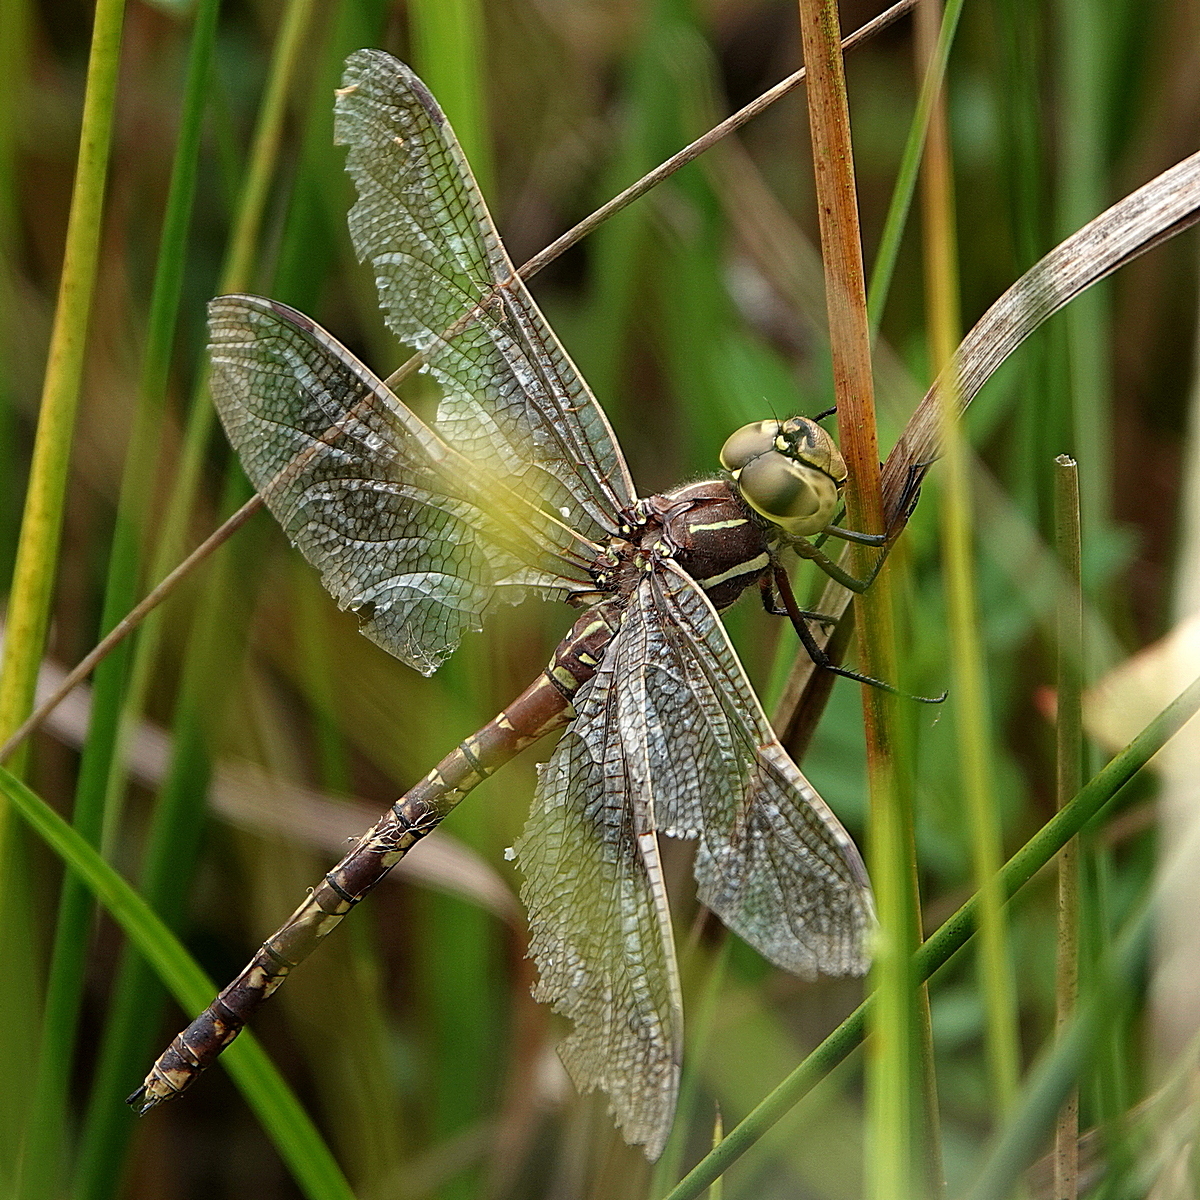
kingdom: Animalia
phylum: Arthropoda
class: Insecta
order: Odonata
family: Aeshnidae
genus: Aeshna
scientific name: Aeshna brevistyla
